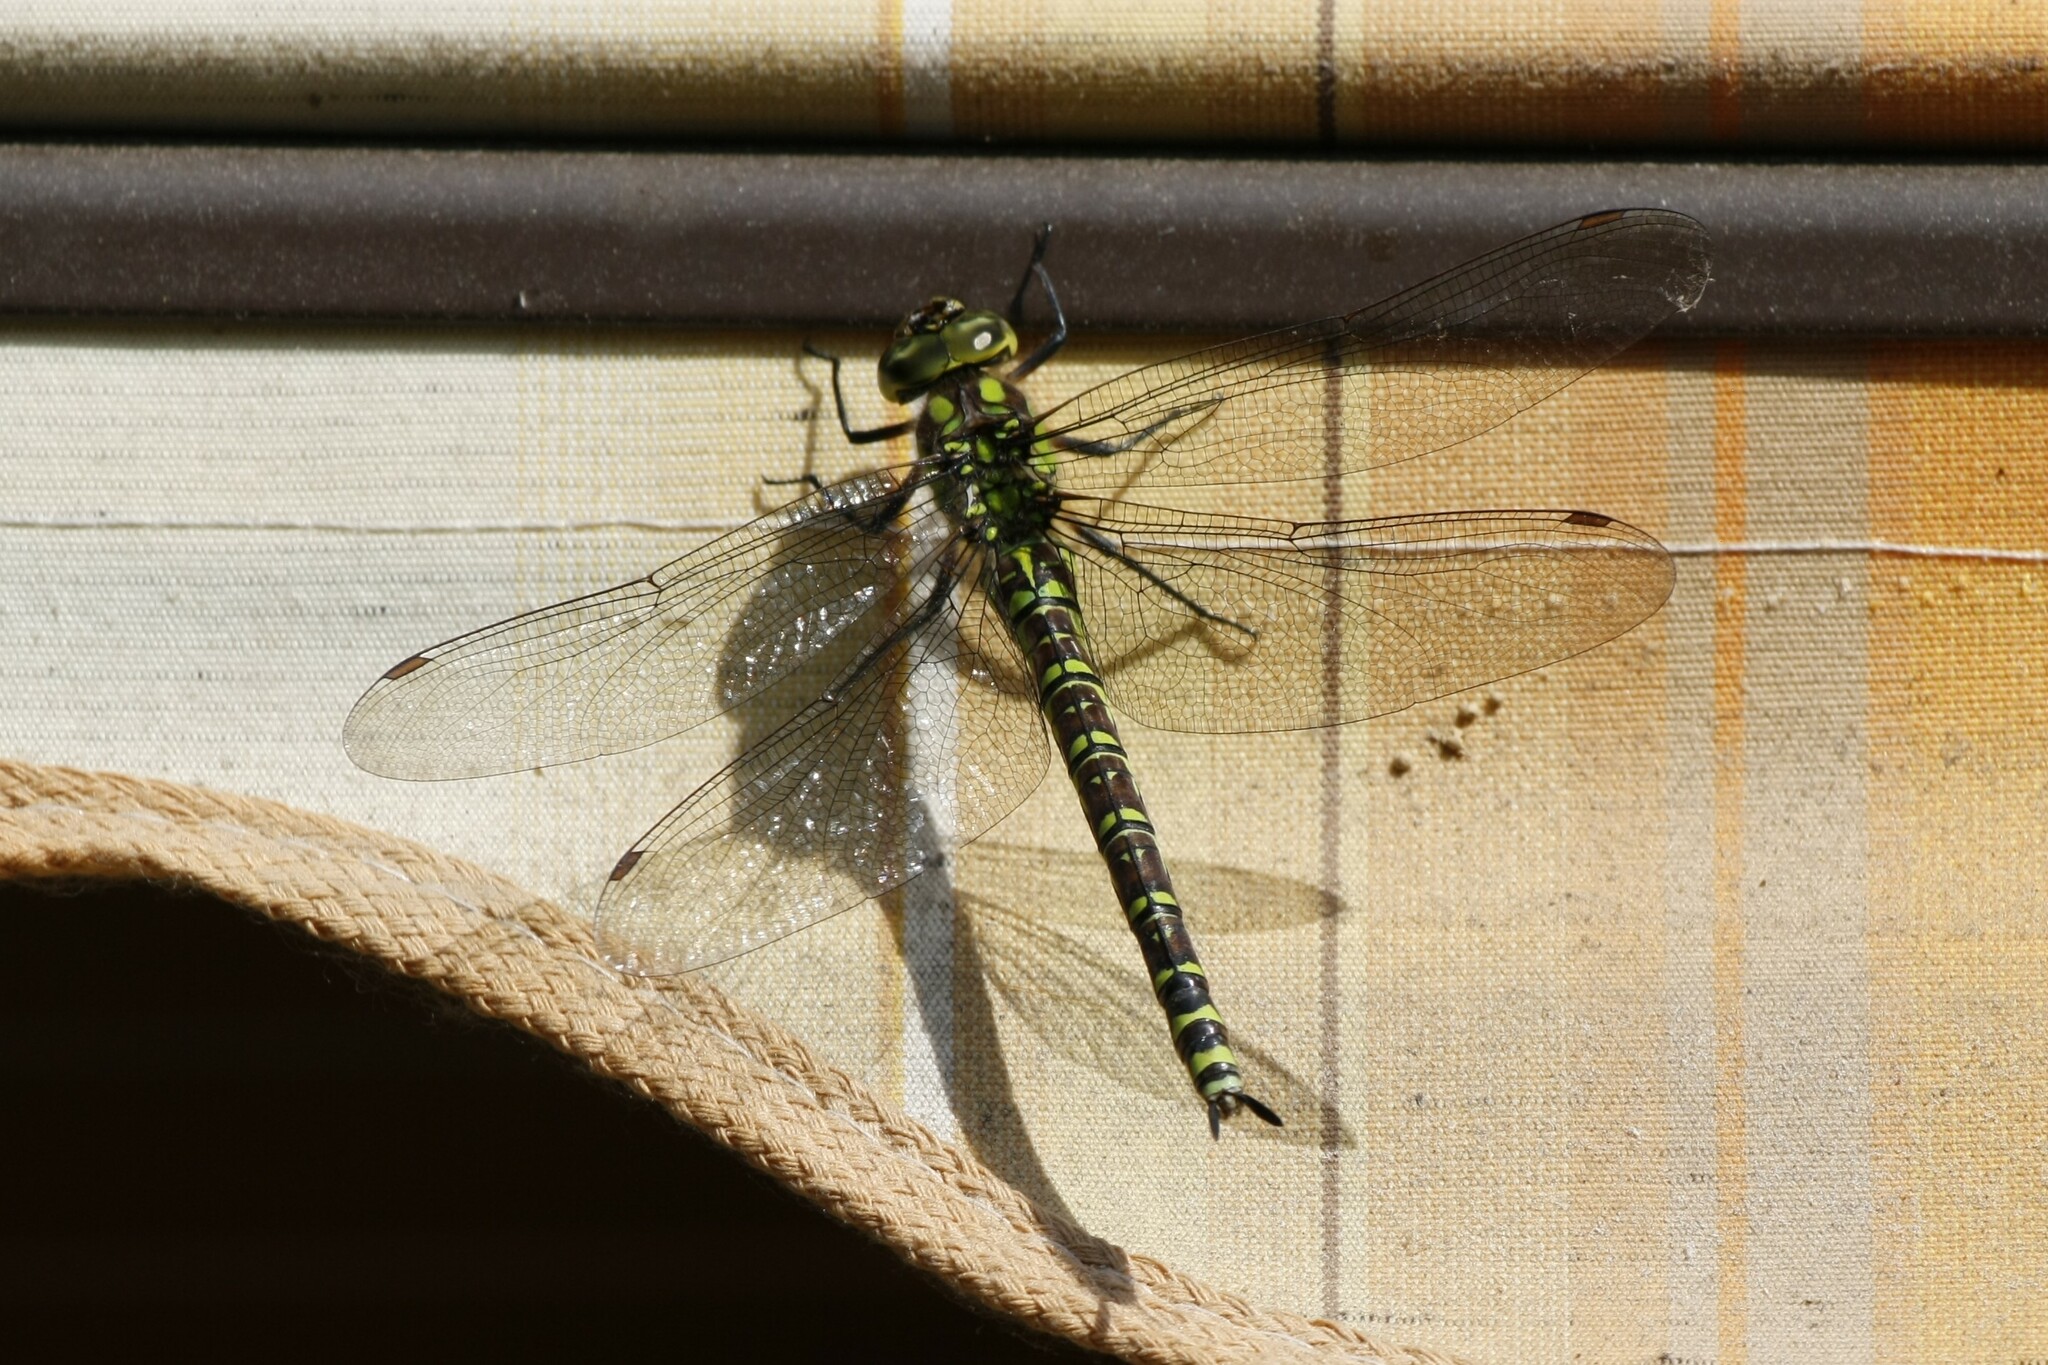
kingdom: Animalia
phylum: Arthropoda
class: Insecta
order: Odonata
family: Aeshnidae
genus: Aeshna
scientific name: Aeshna cyanea
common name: Southern hawker
